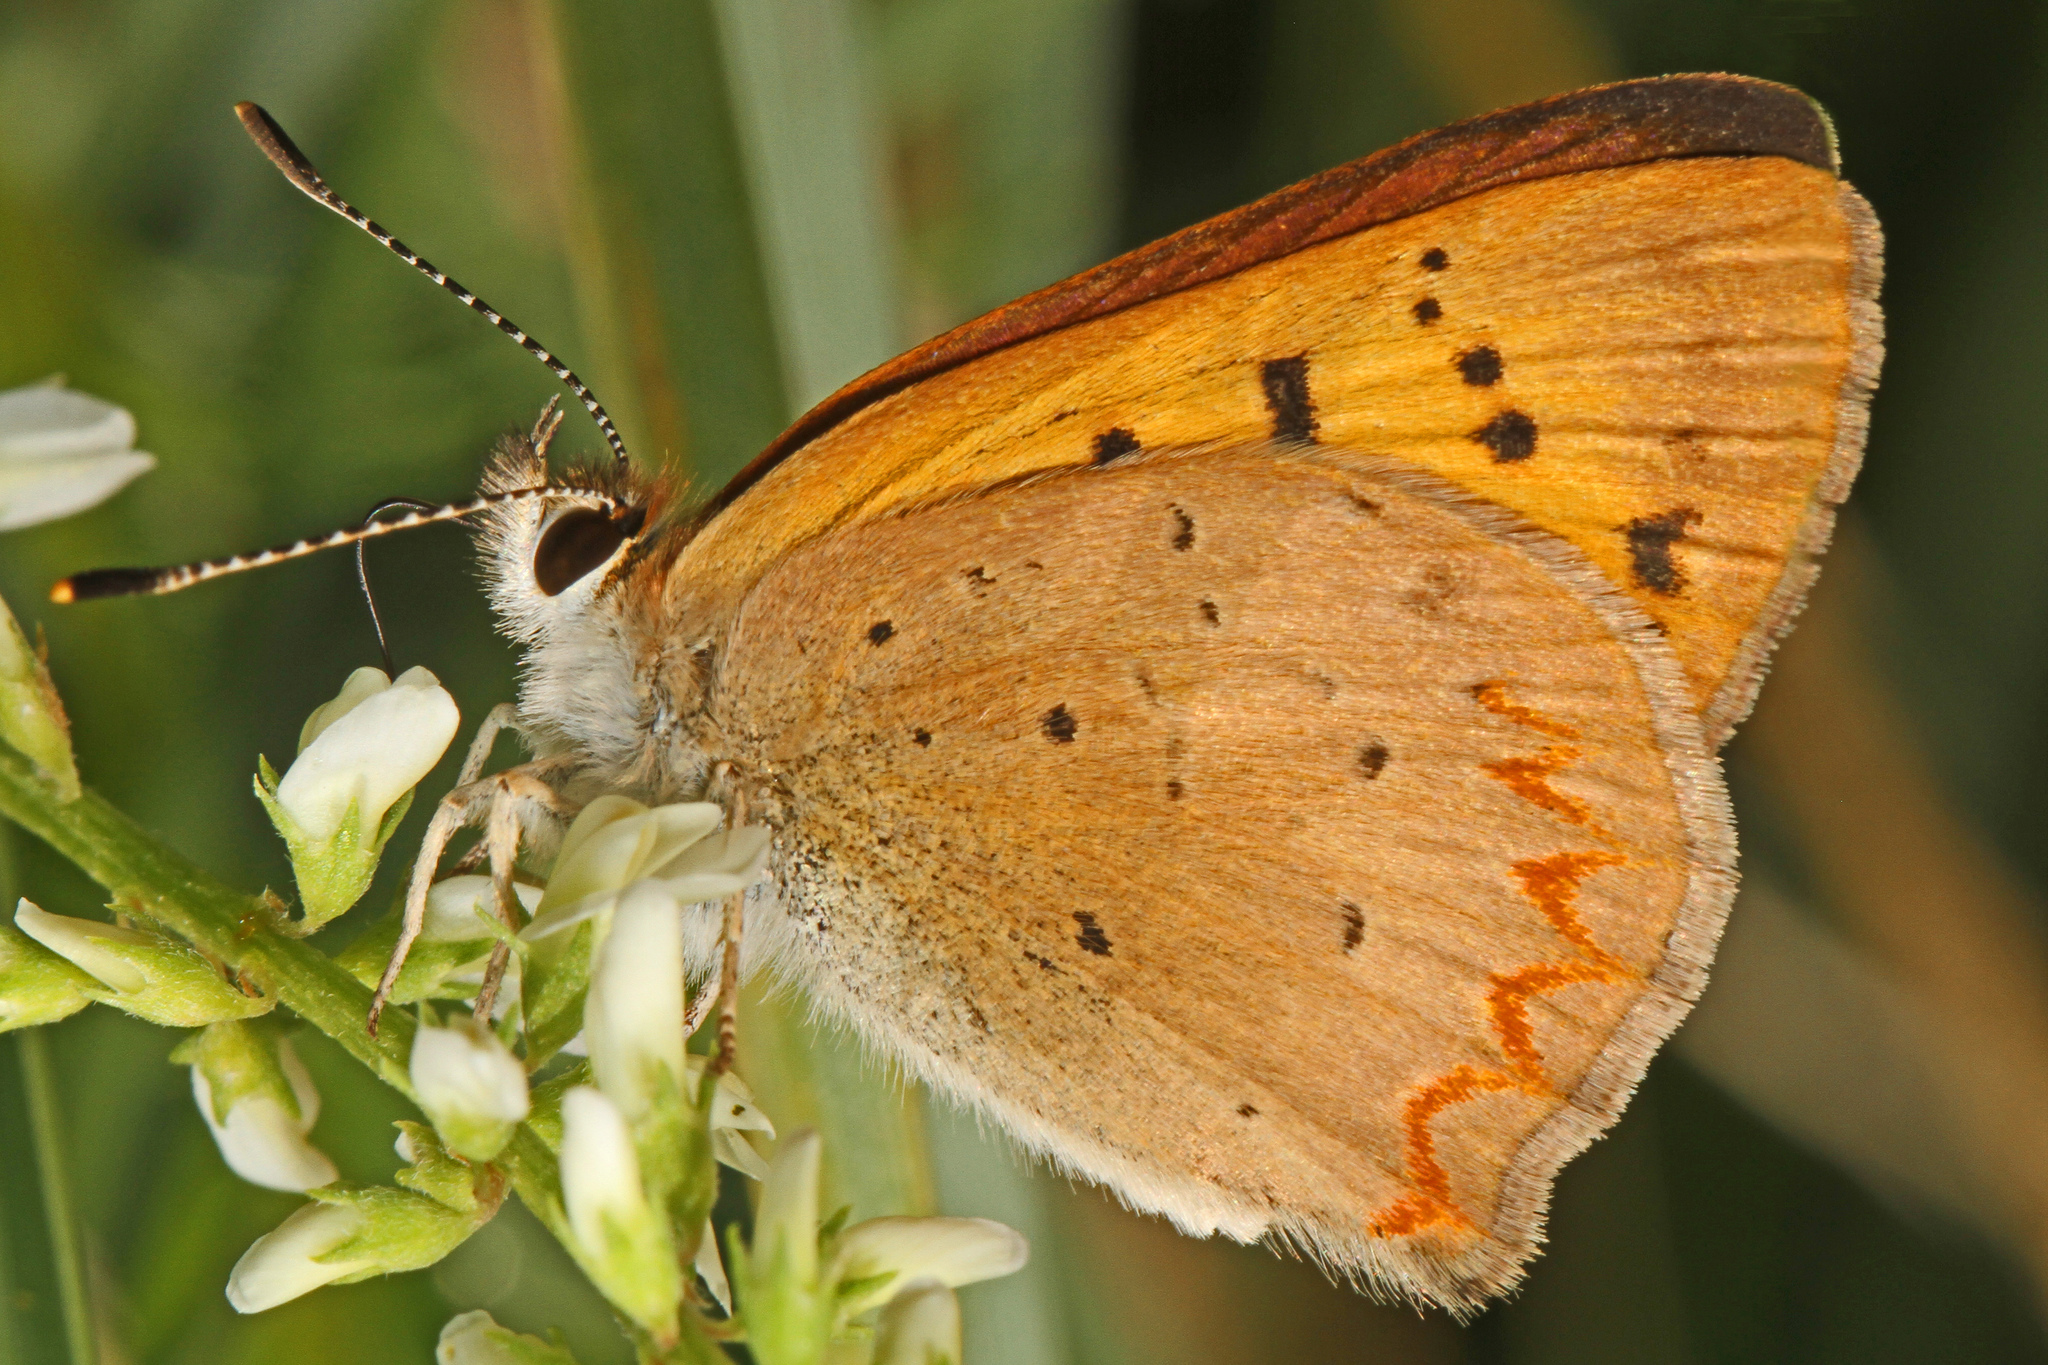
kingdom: Animalia
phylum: Arthropoda
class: Insecta
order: Lepidoptera
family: Lycaenidae
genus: Tharsalea
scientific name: Tharsalea helloides
